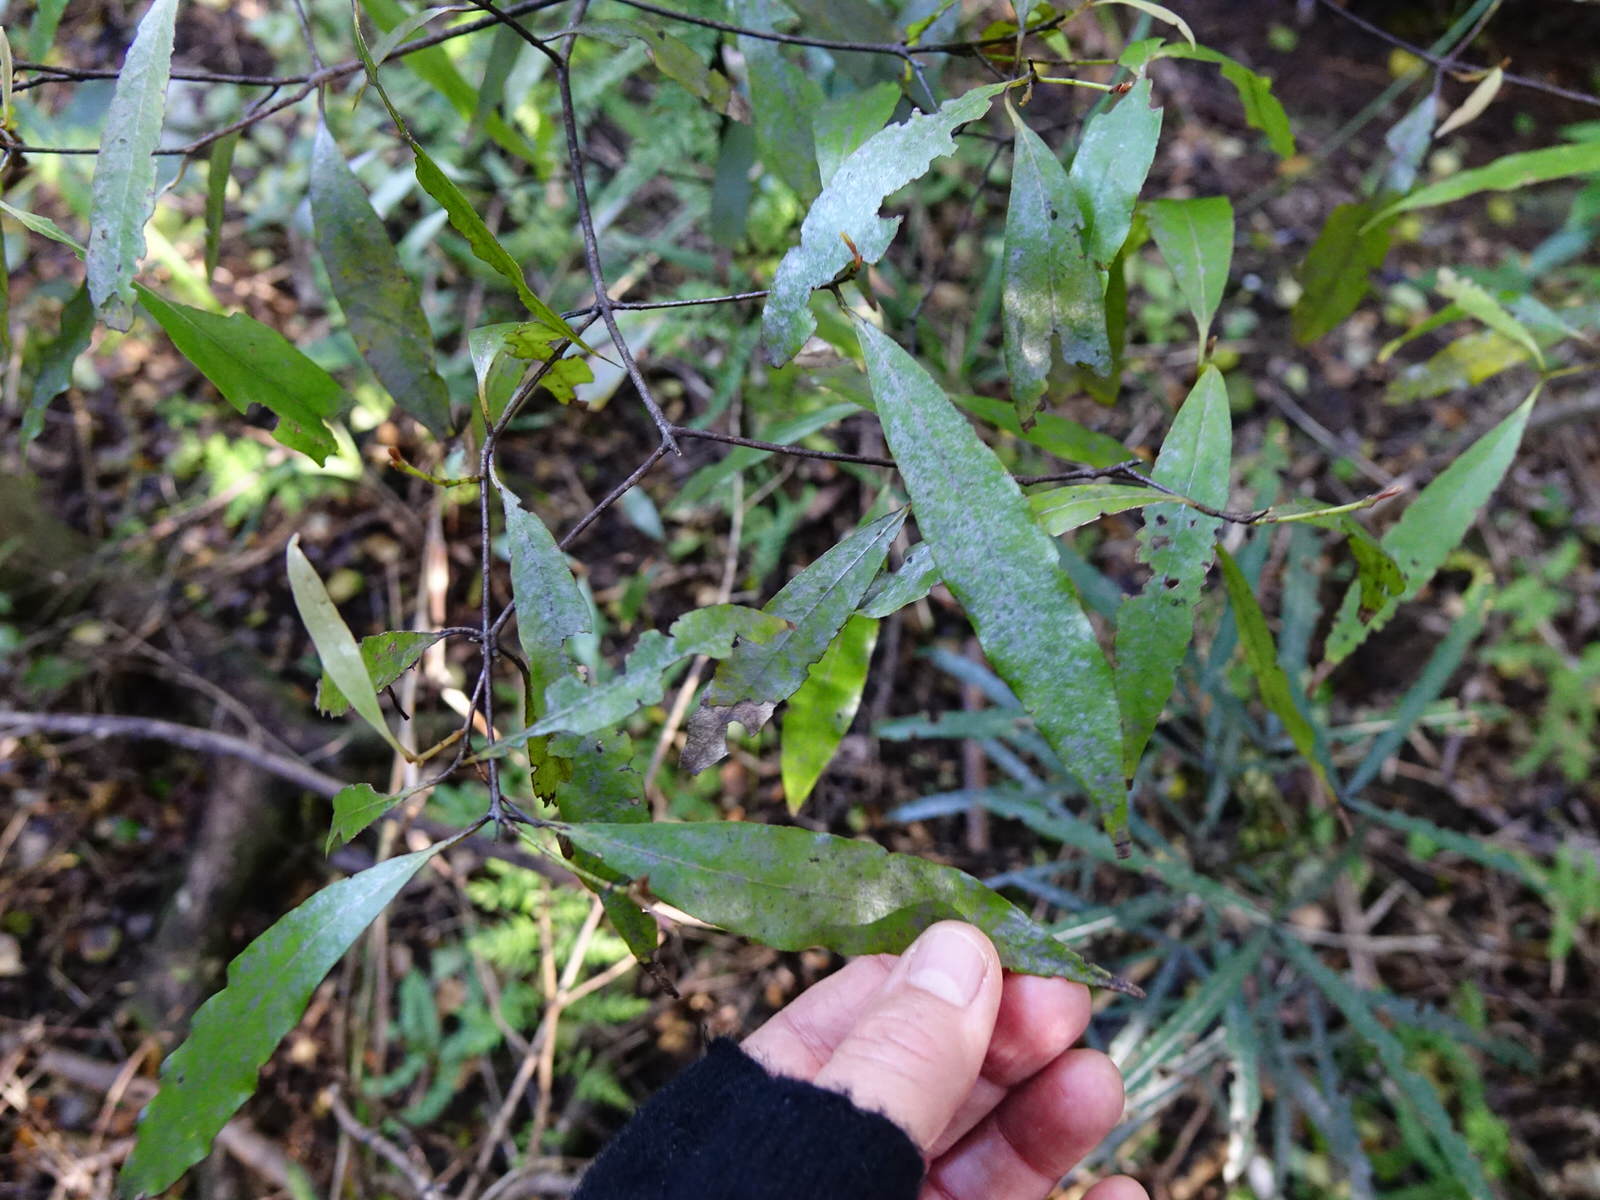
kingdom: Plantae
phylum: Tracheophyta
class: Magnoliopsida
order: Laurales
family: Lauraceae
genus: Beilschmiedia
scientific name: Beilschmiedia tawa
